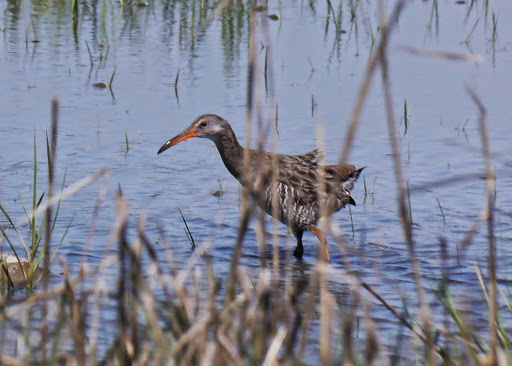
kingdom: Animalia
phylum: Chordata
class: Aves
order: Gruiformes
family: Rallidae
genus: Rallus
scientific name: Rallus crepitans
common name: Clapper rail
